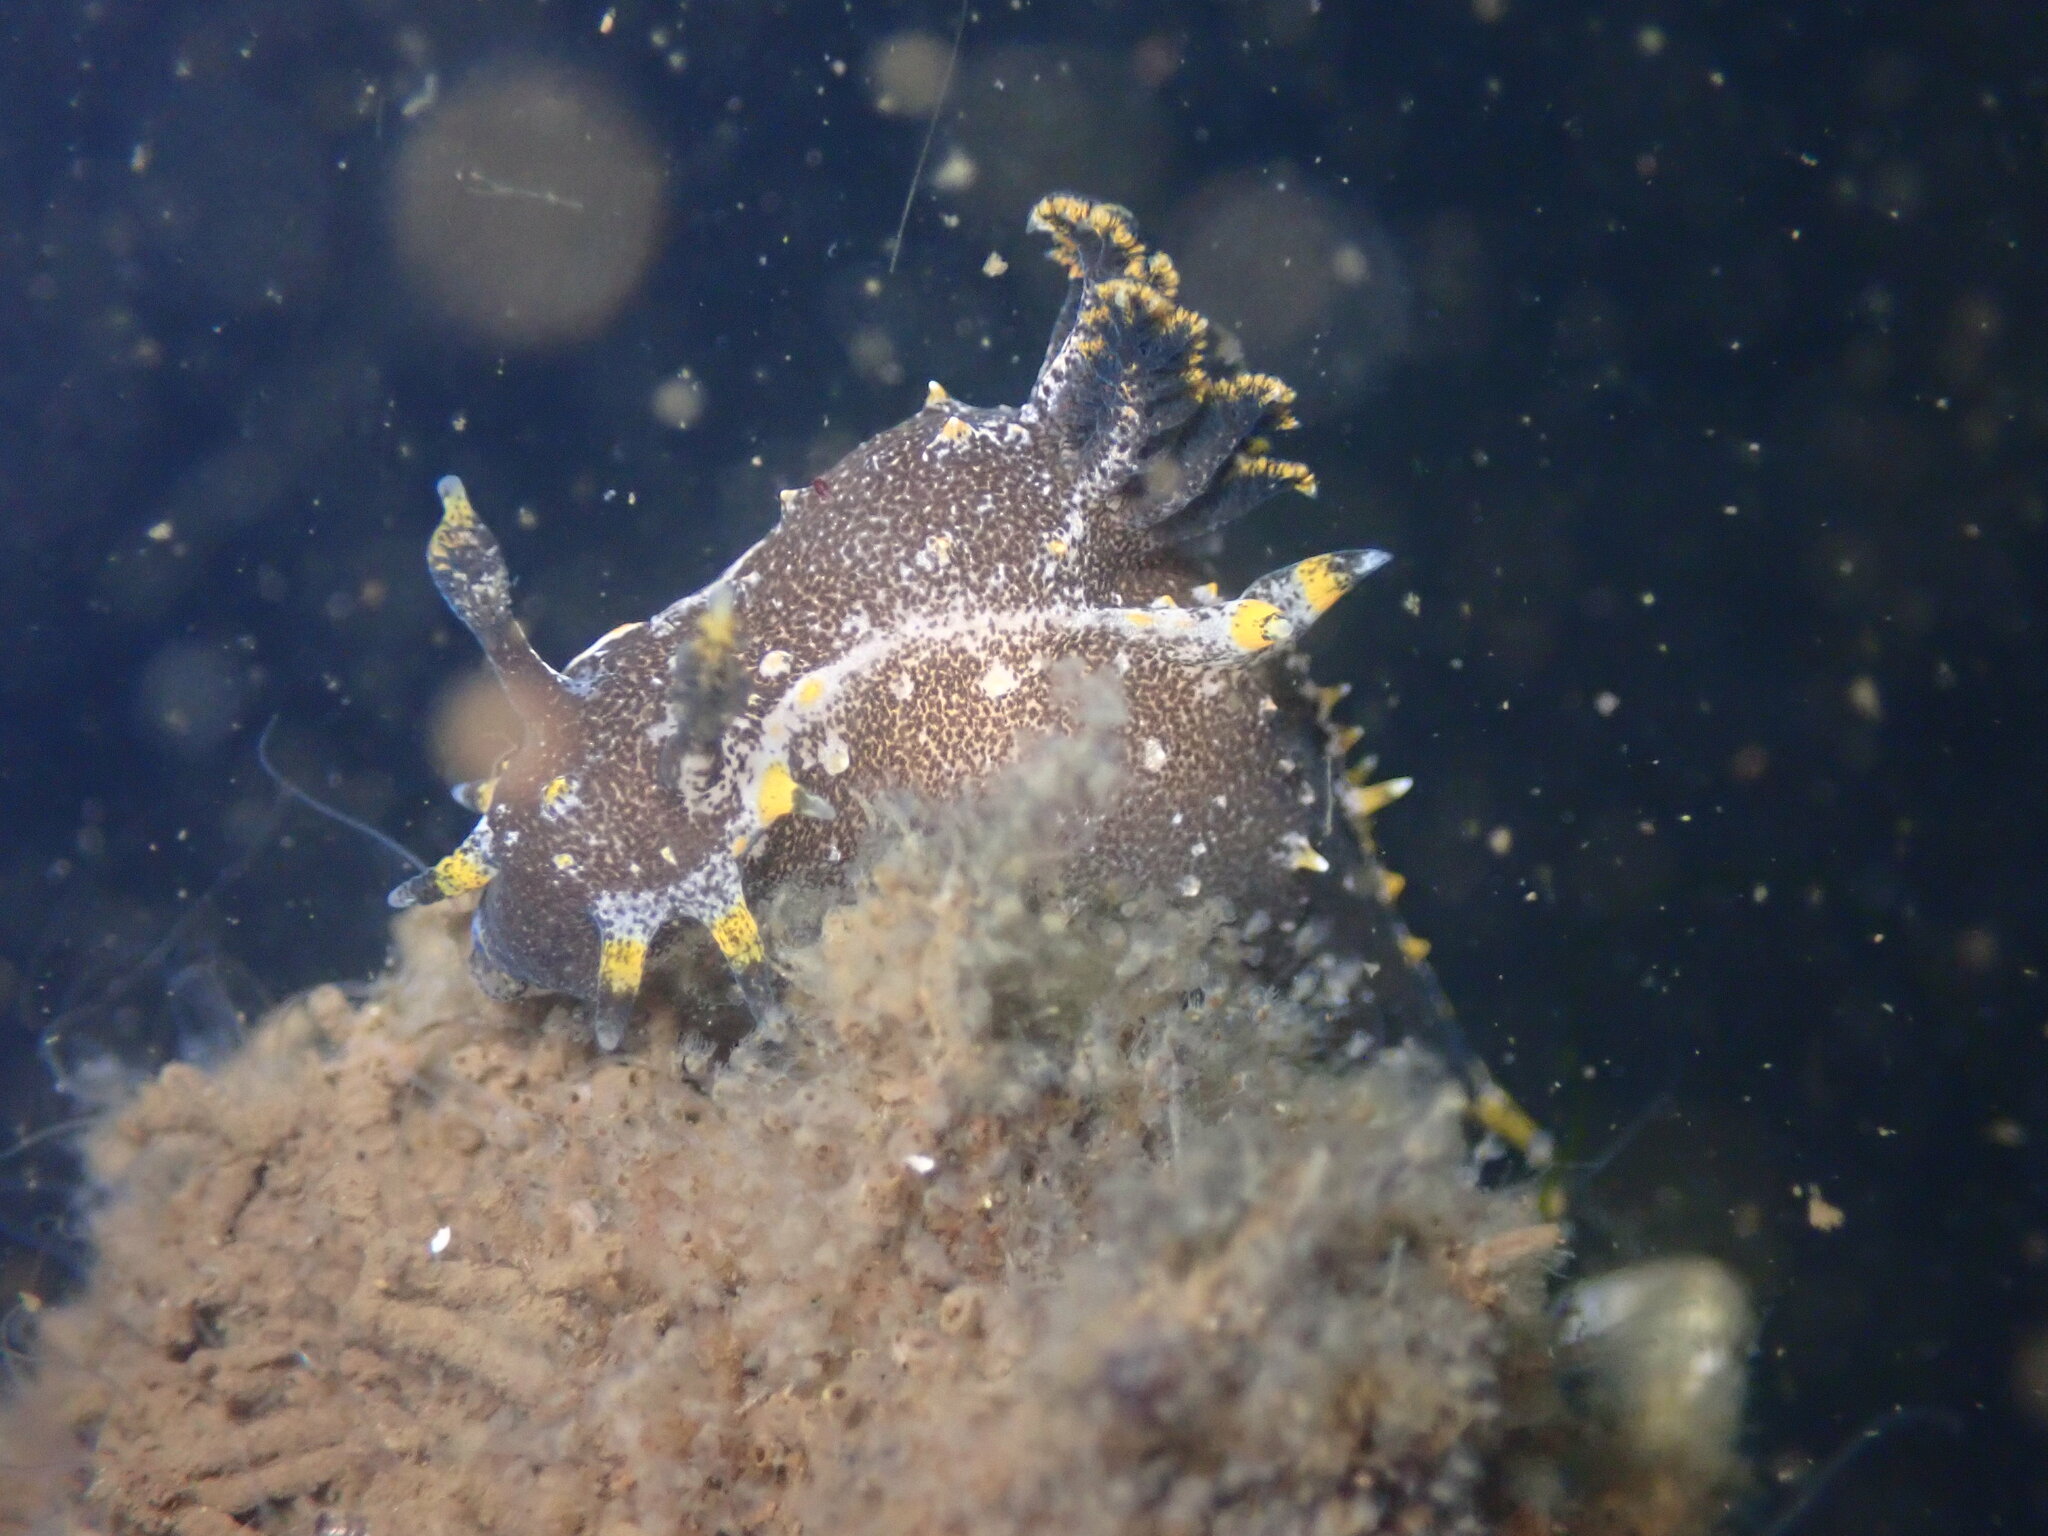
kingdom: Animalia
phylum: Mollusca
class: Gastropoda
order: Nudibranchia
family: Polyceridae
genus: Polycera
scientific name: Polycera hedgpethi
